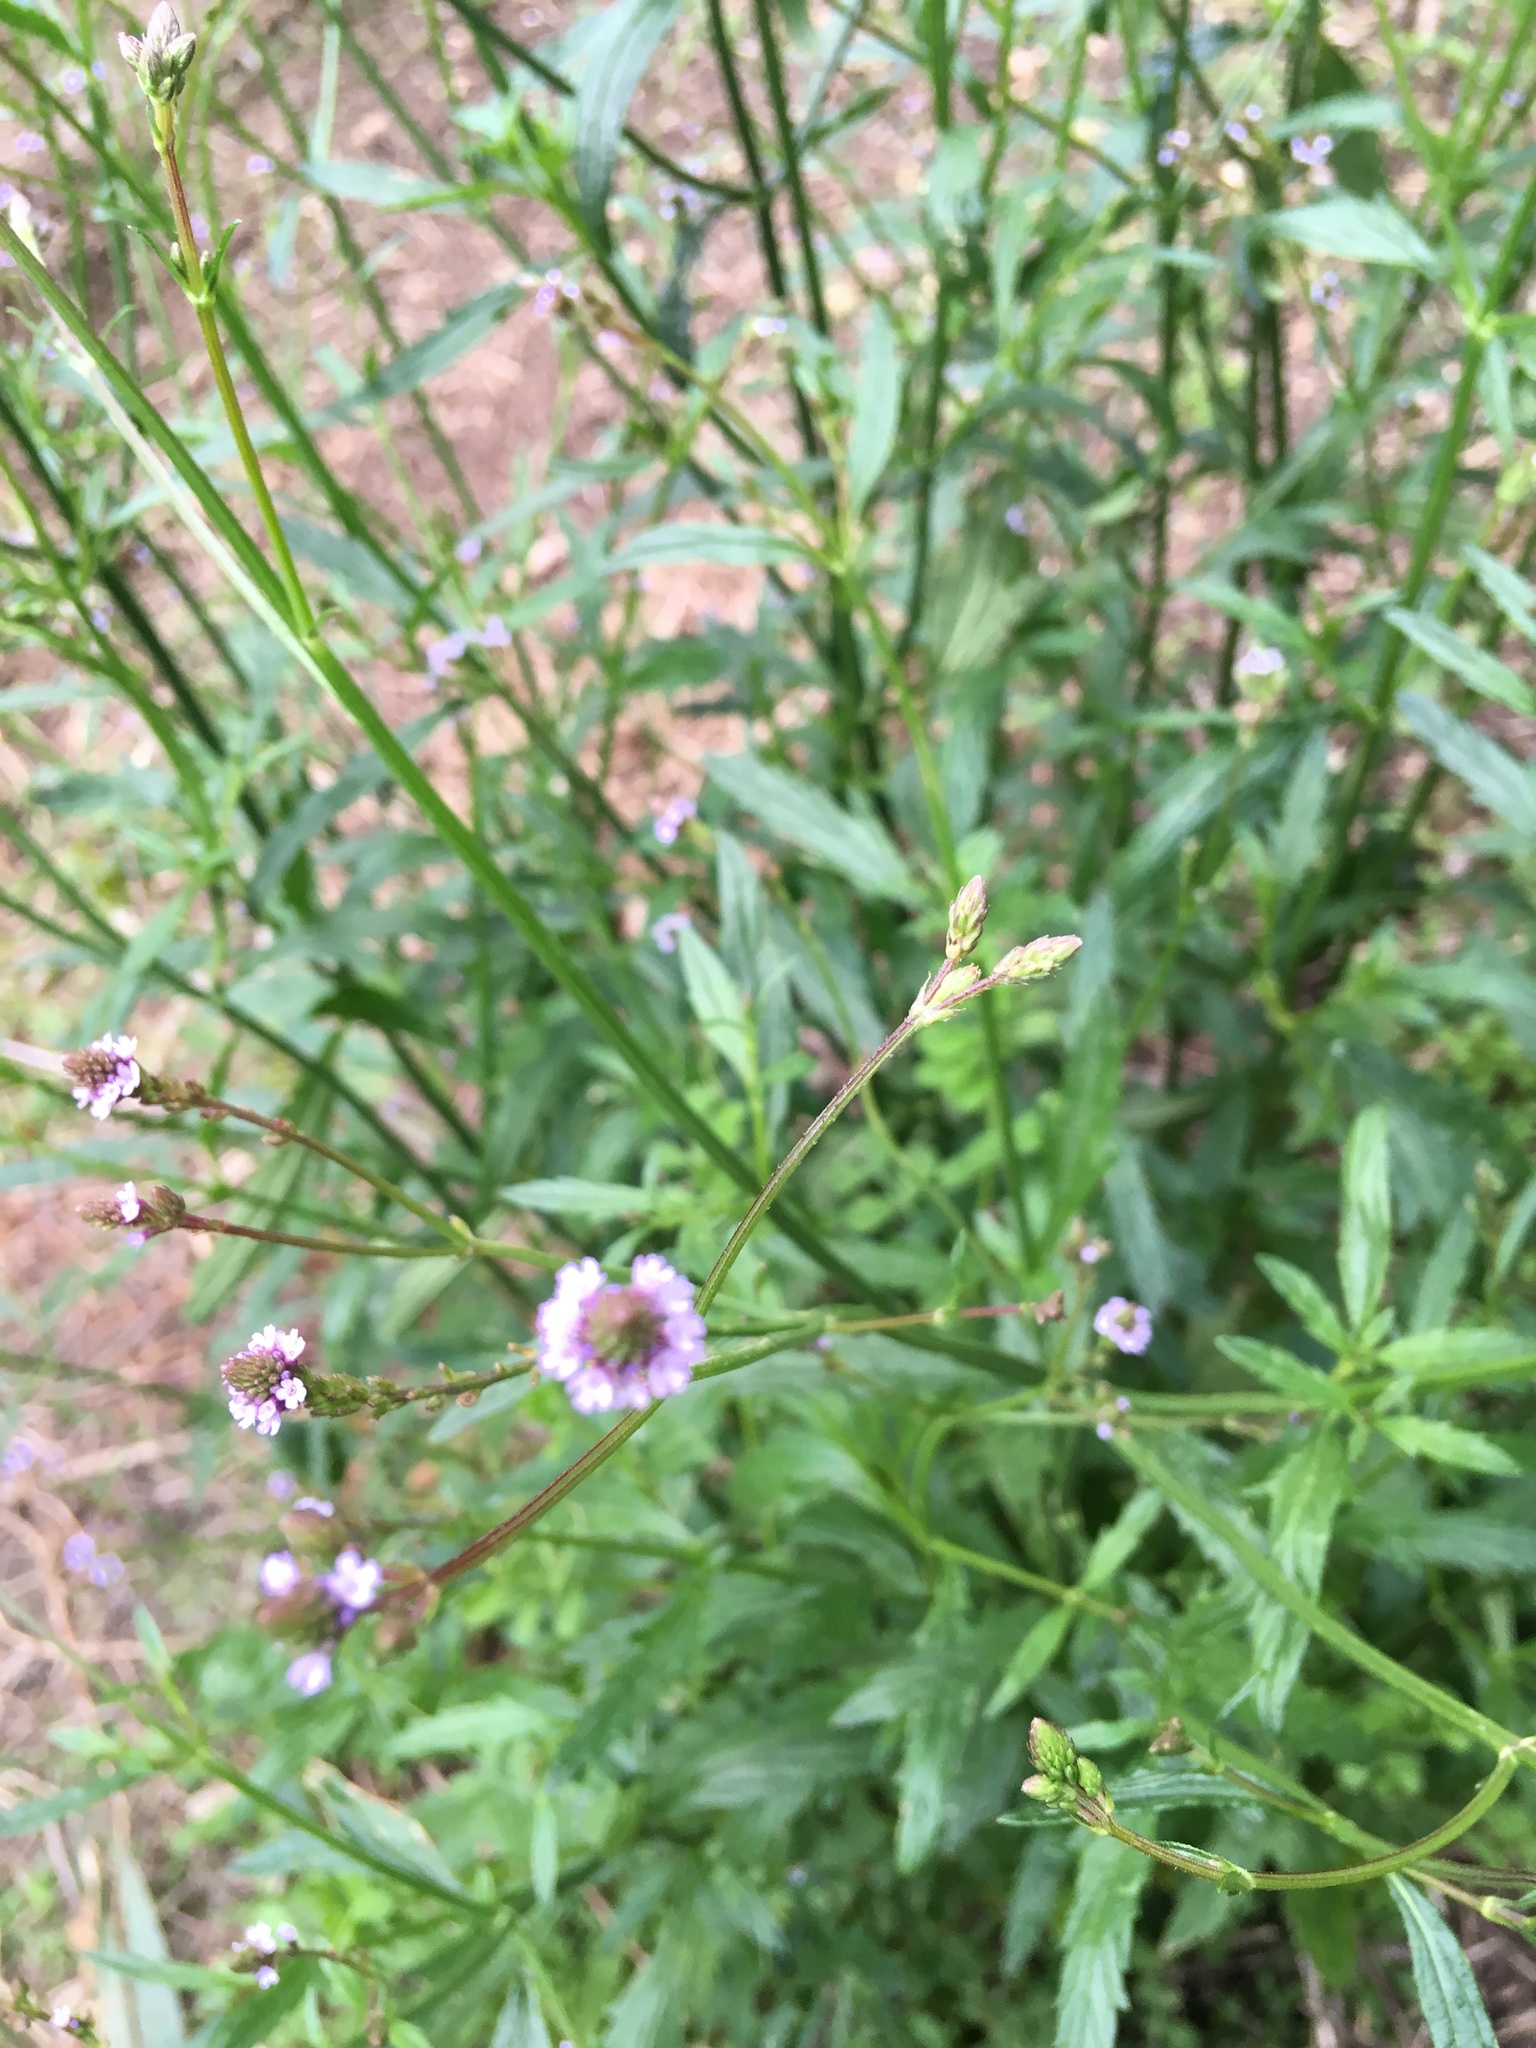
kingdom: Plantae
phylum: Tracheophyta
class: Magnoliopsida
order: Lamiales
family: Verbenaceae
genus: Verbena
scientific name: Verbena litoralis
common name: Seashore vervain
